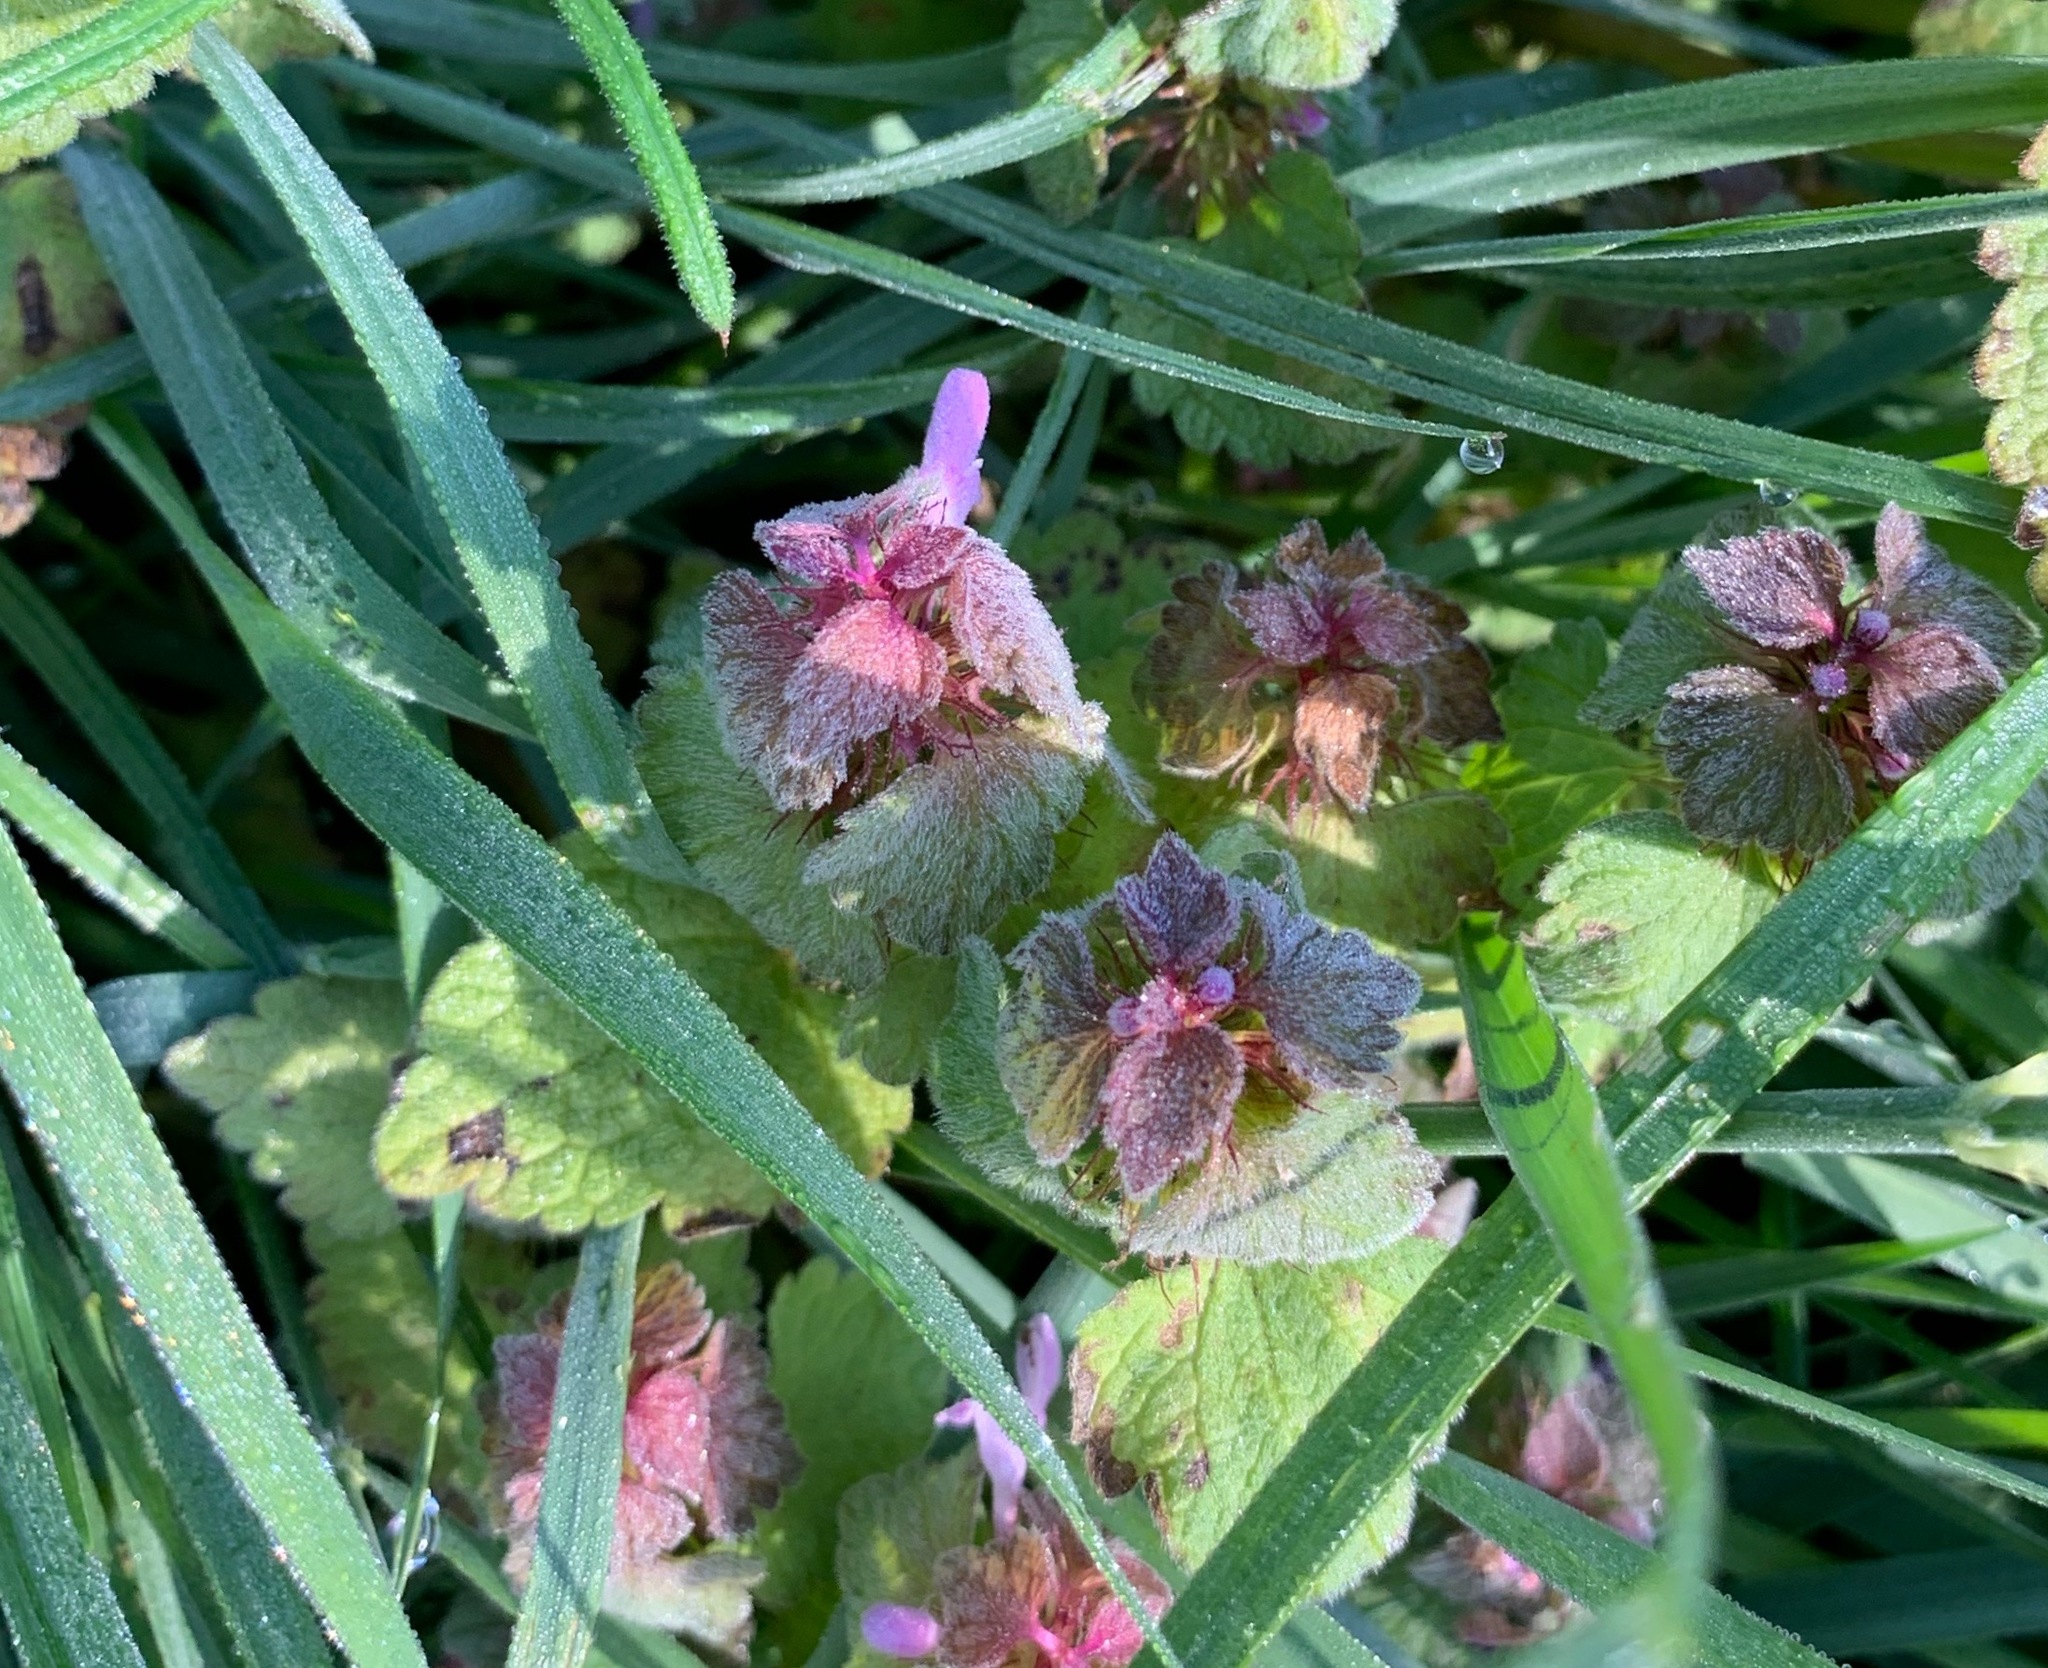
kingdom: Plantae
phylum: Tracheophyta
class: Magnoliopsida
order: Lamiales
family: Lamiaceae
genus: Lamium
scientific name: Lamium purpureum
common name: Red dead-nettle
